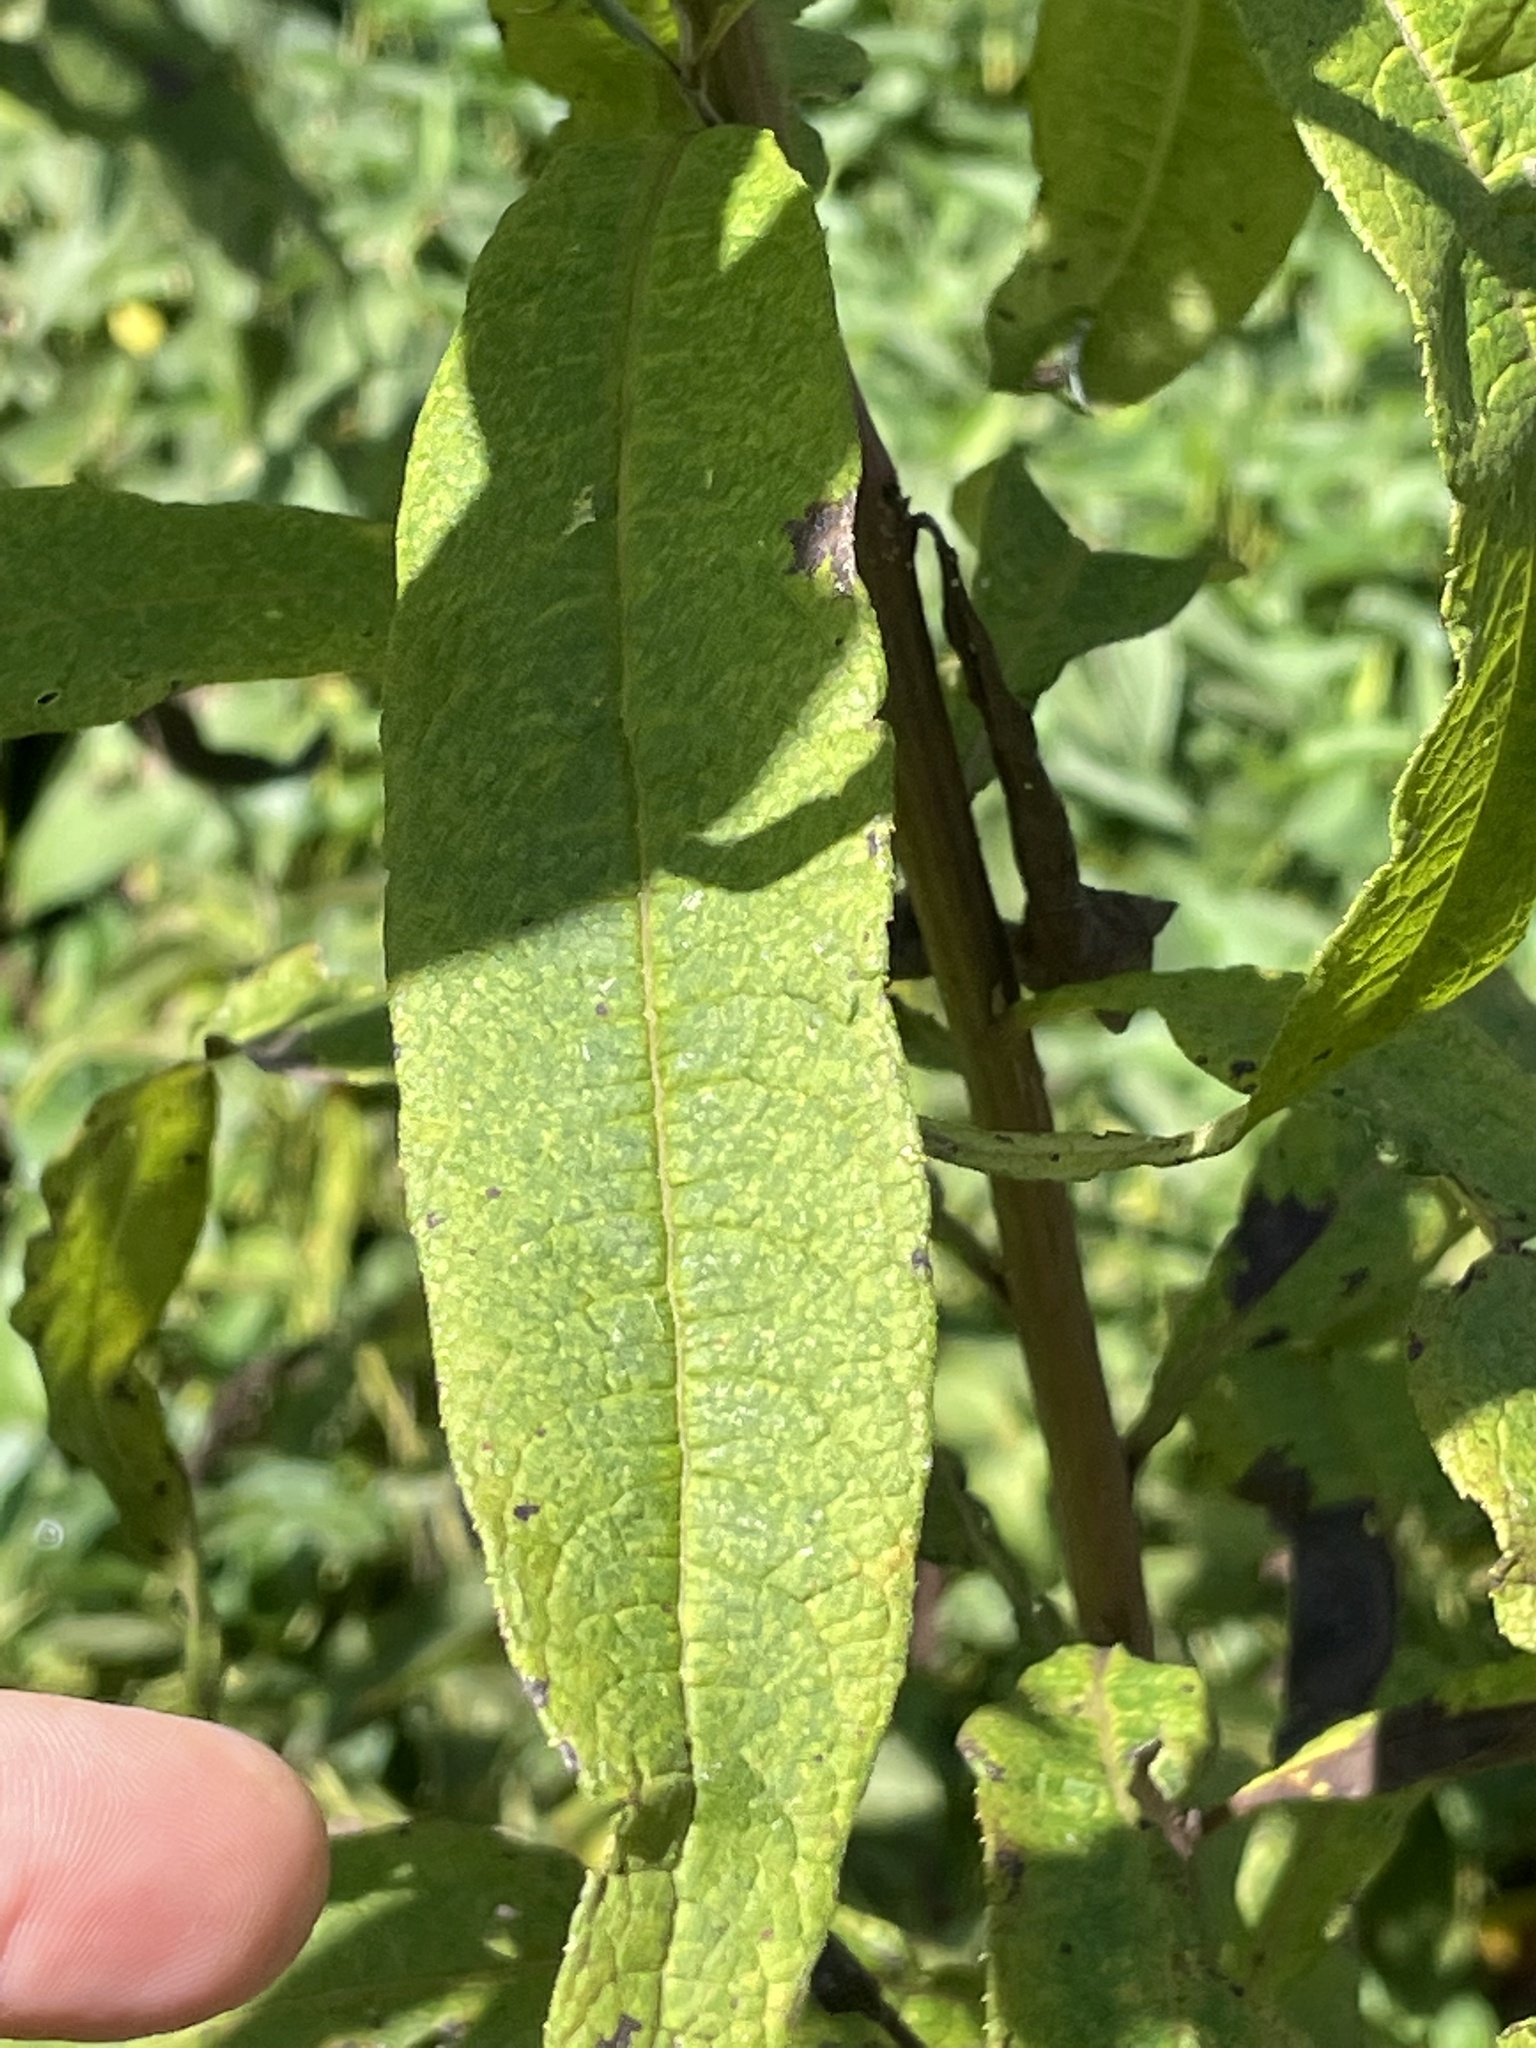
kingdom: Plantae
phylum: Tracheophyta
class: Magnoliopsida
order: Asterales
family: Asteraceae
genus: Vernonia
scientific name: Vernonia noveboracensis
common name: New york ironweed
